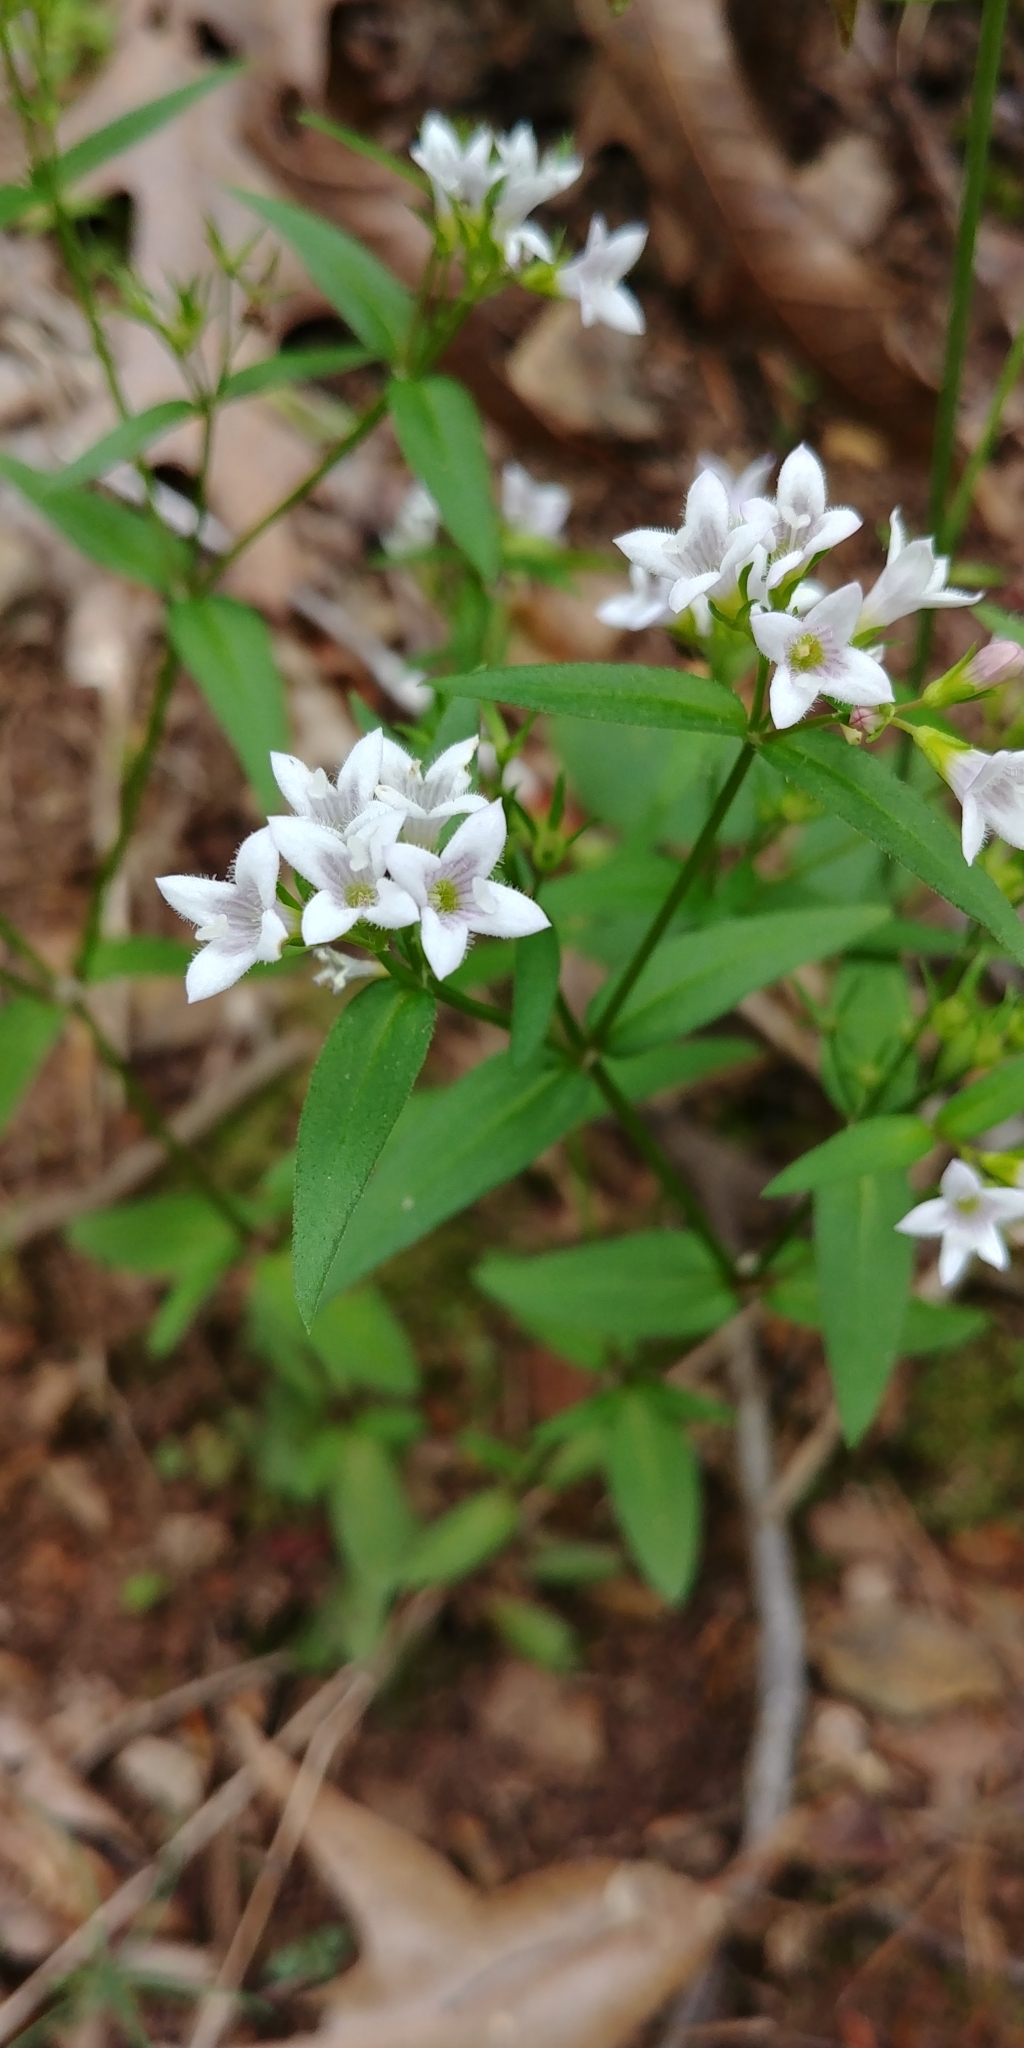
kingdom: Plantae
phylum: Tracheophyta
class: Magnoliopsida
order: Gentianales
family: Rubiaceae
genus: Houstonia
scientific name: Houstonia purpurea
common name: Summer bluet
